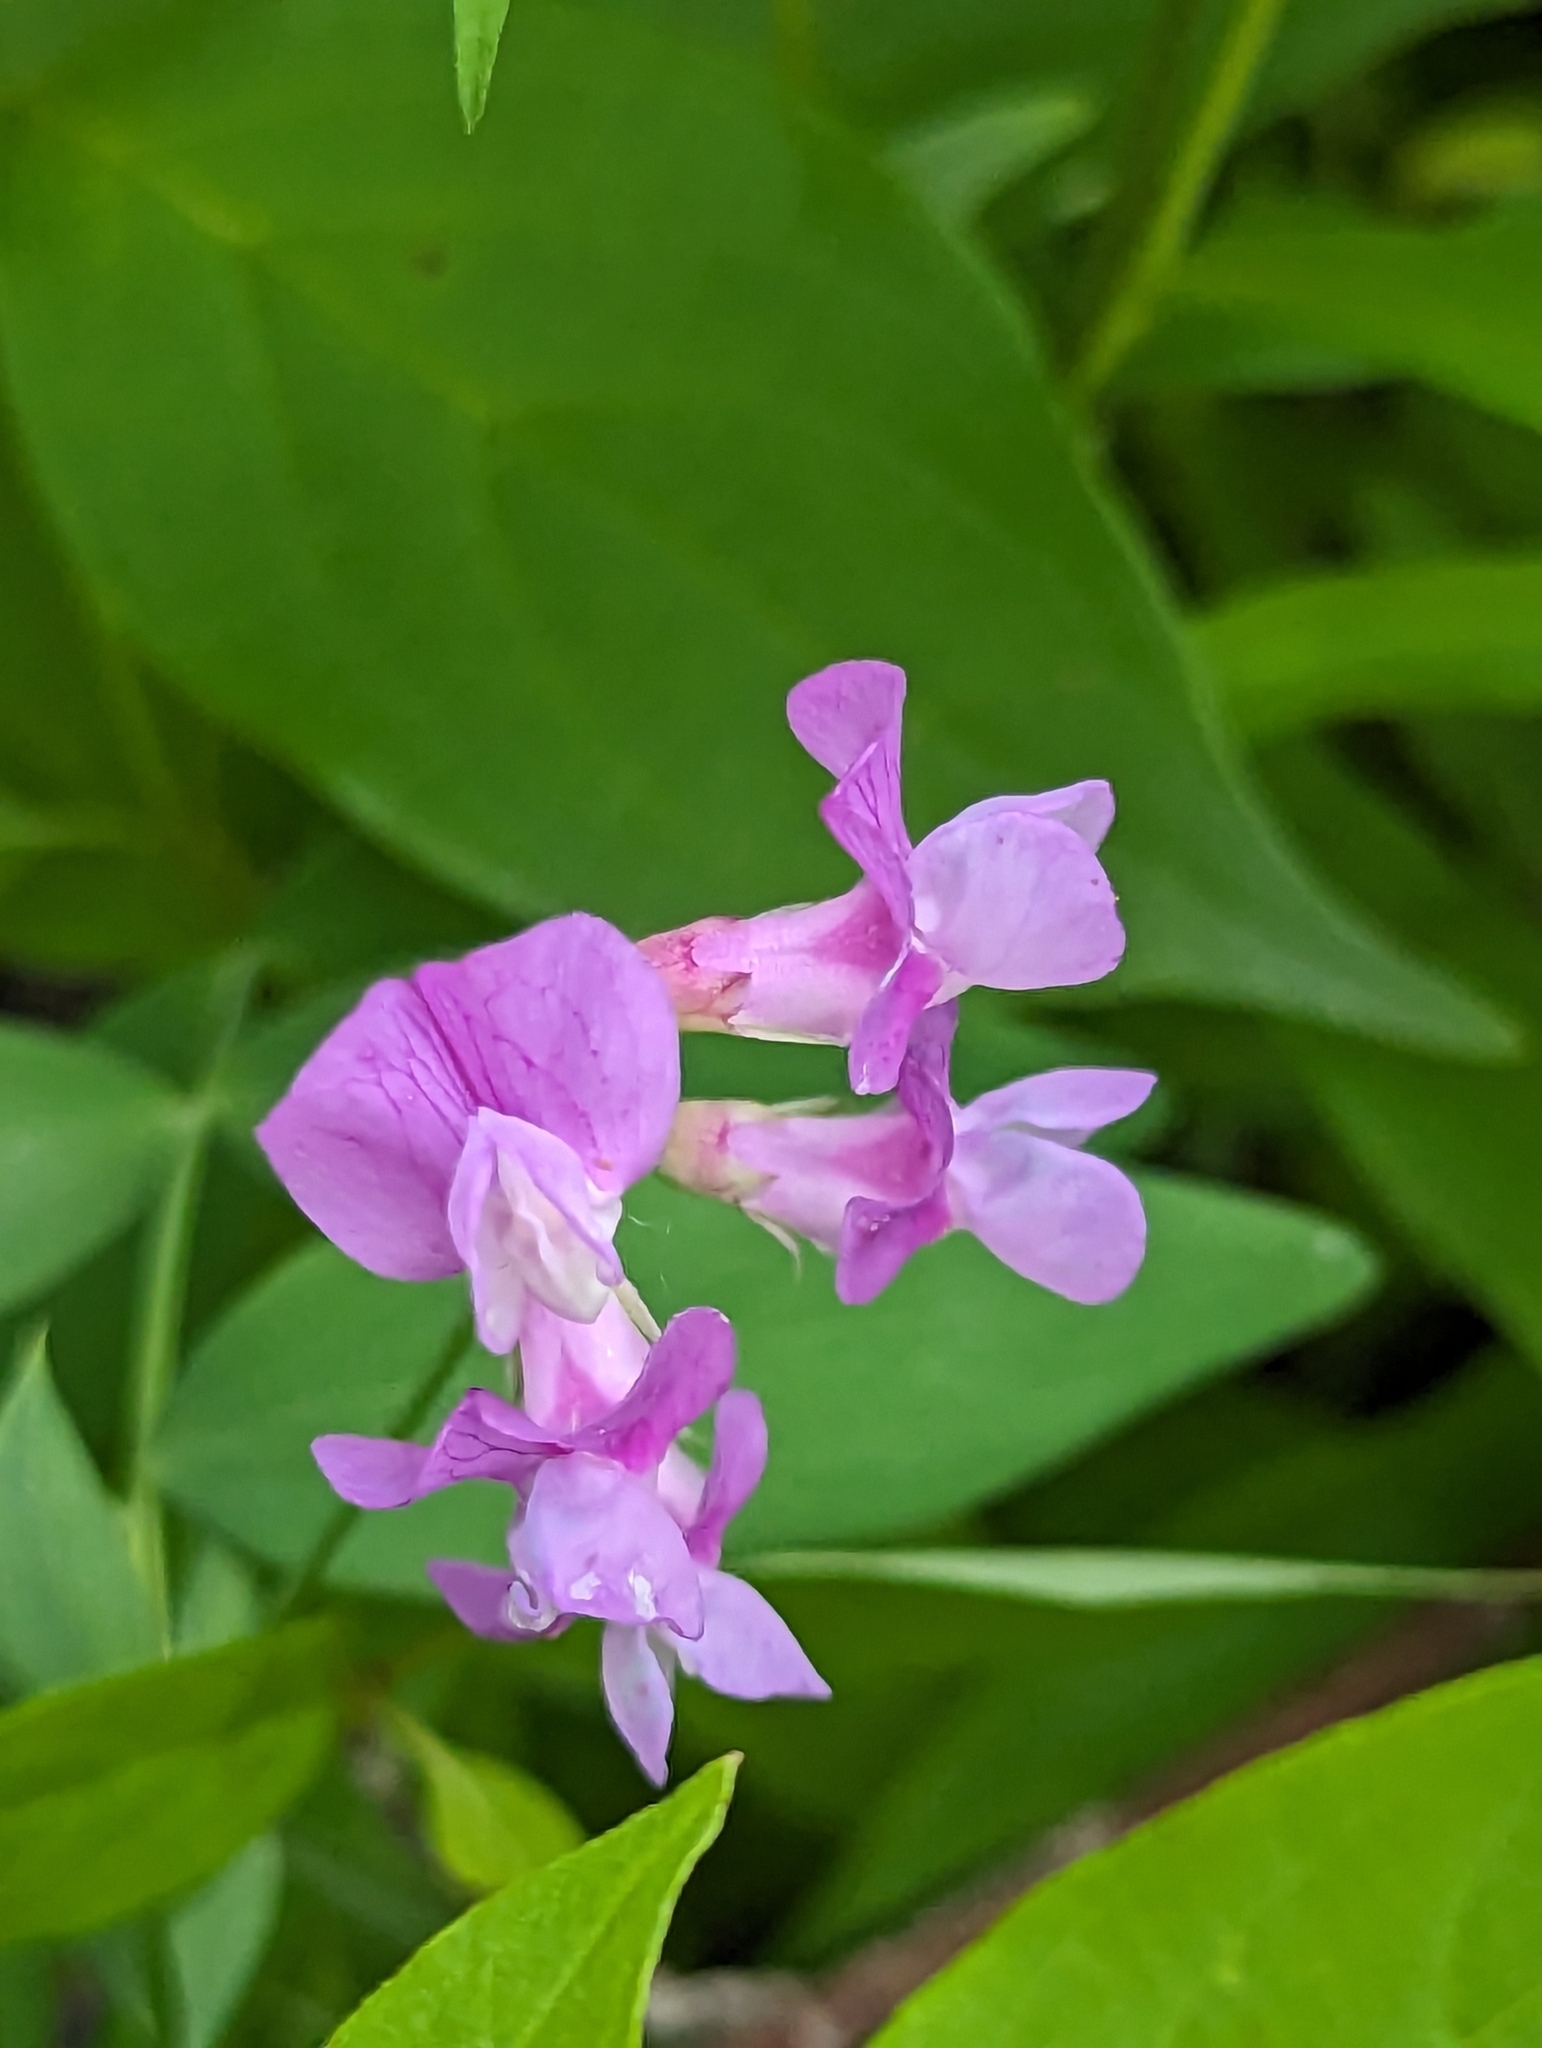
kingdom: Plantae
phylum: Tracheophyta
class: Magnoliopsida
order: Fabales
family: Fabaceae
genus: Lathyrus
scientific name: Lathyrus palustris
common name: Marsh pea
